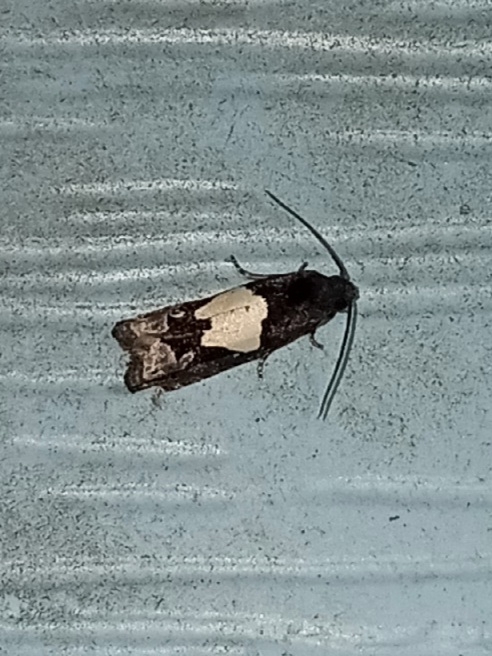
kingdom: Animalia
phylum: Arthropoda
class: Insecta
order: Lepidoptera
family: Tortricidae
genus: Epiblema
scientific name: Epiblema otiosana
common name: Bidens borer moth
